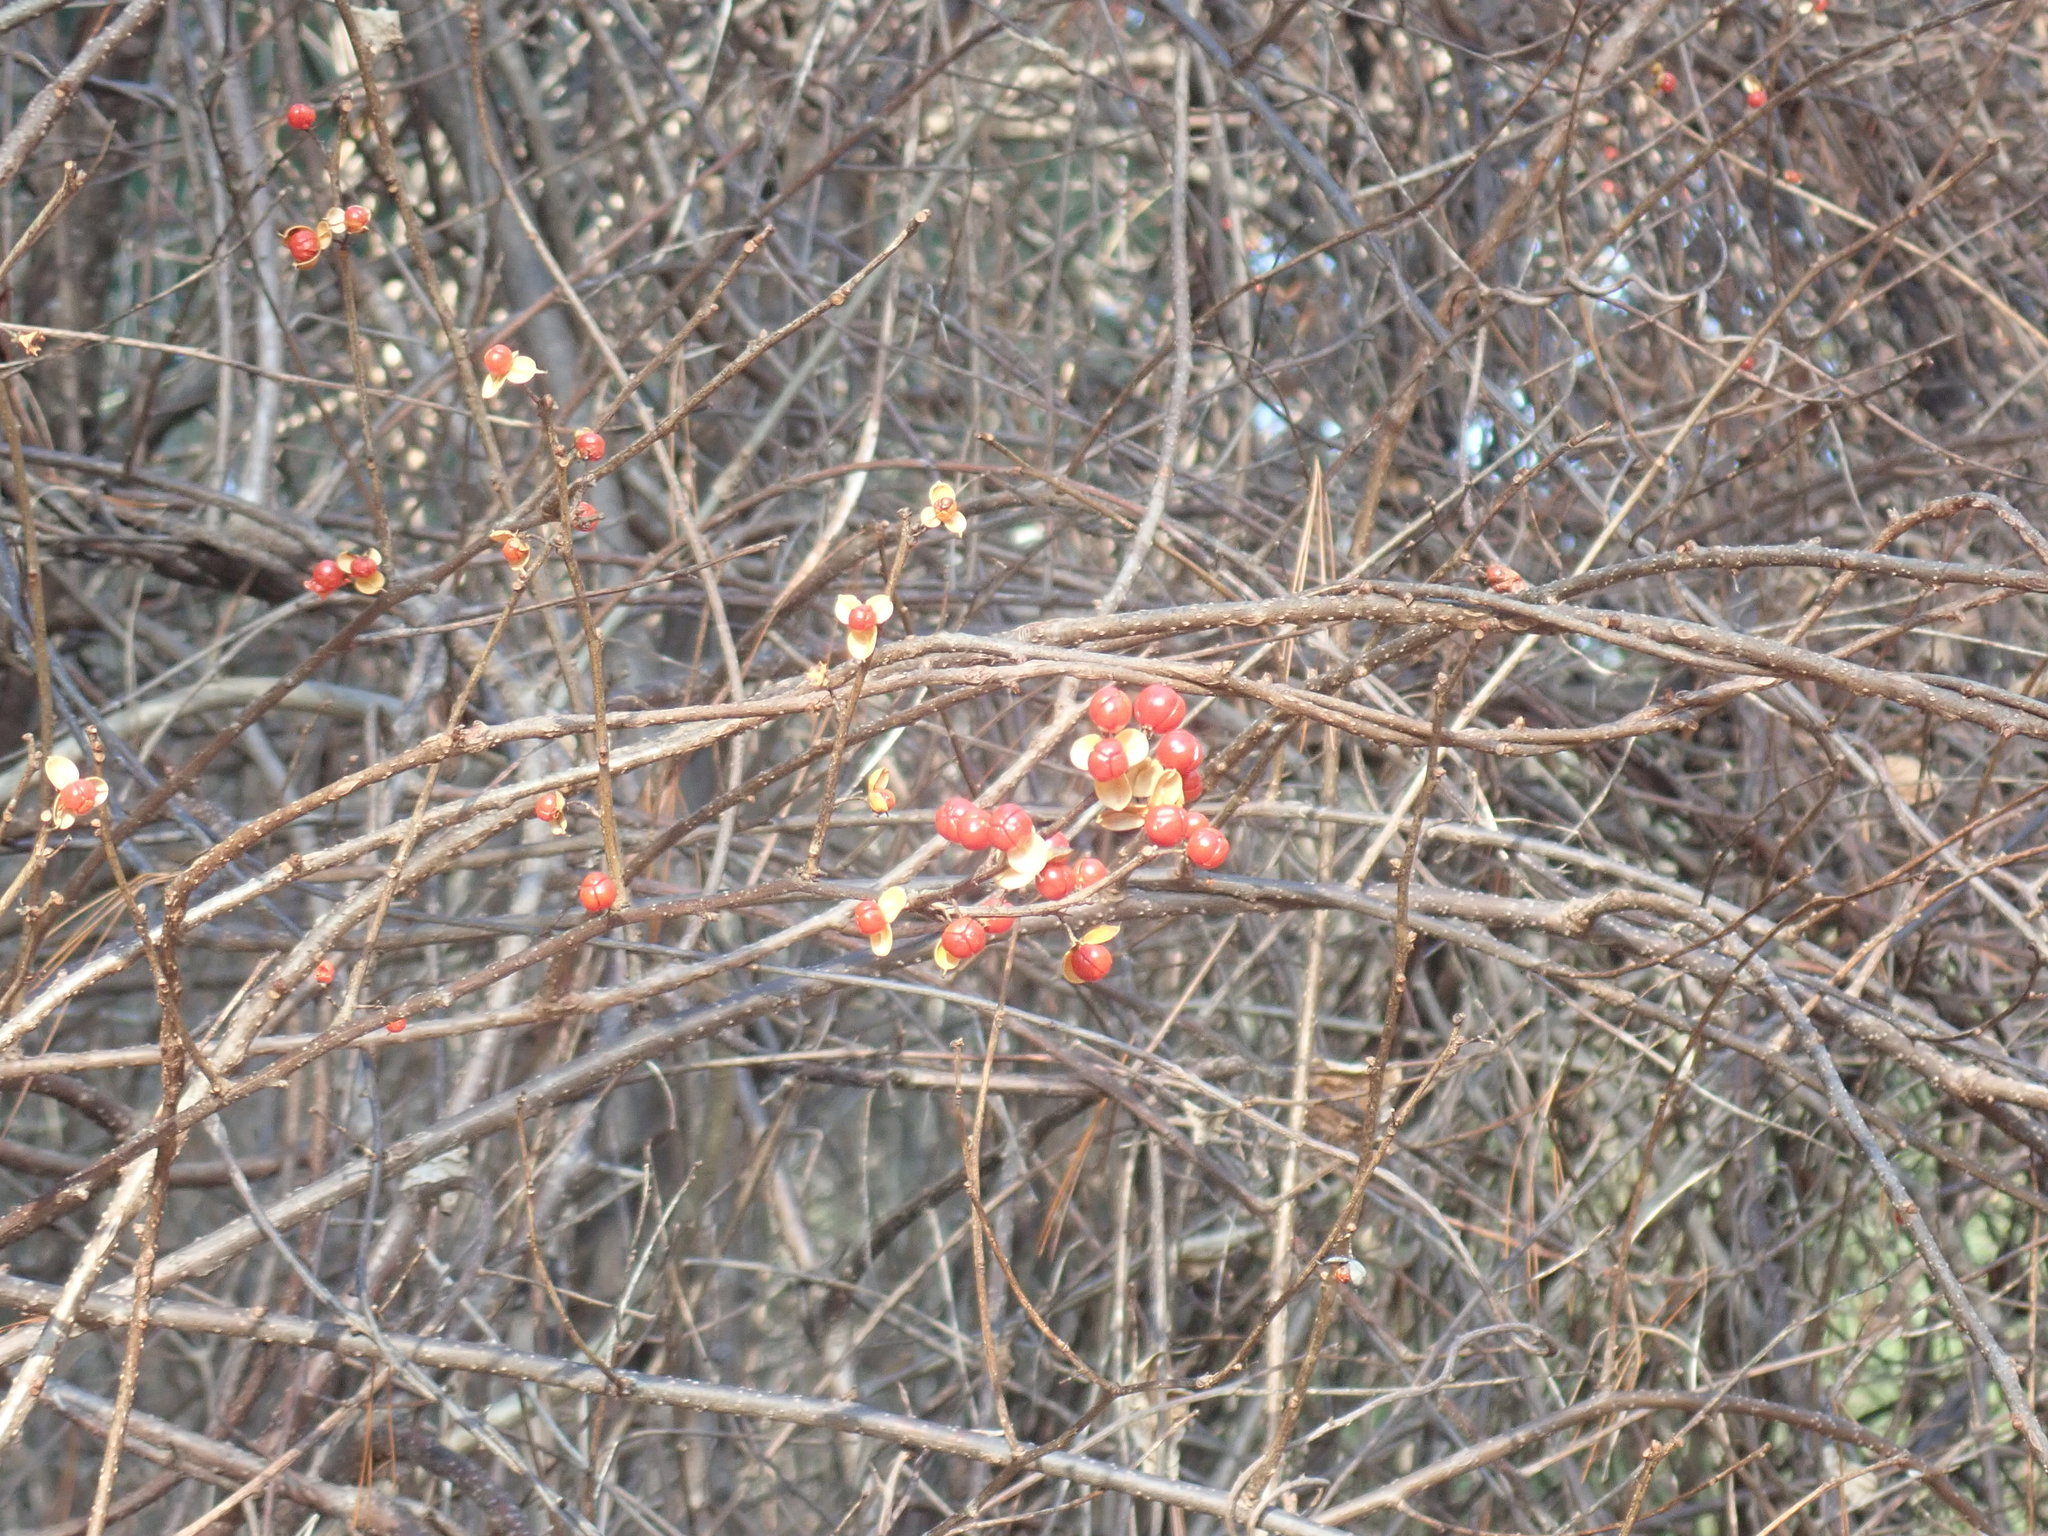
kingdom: Plantae
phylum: Tracheophyta
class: Magnoliopsida
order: Celastrales
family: Celastraceae
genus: Celastrus
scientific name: Celastrus orbiculatus
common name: Oriental bittersweet
